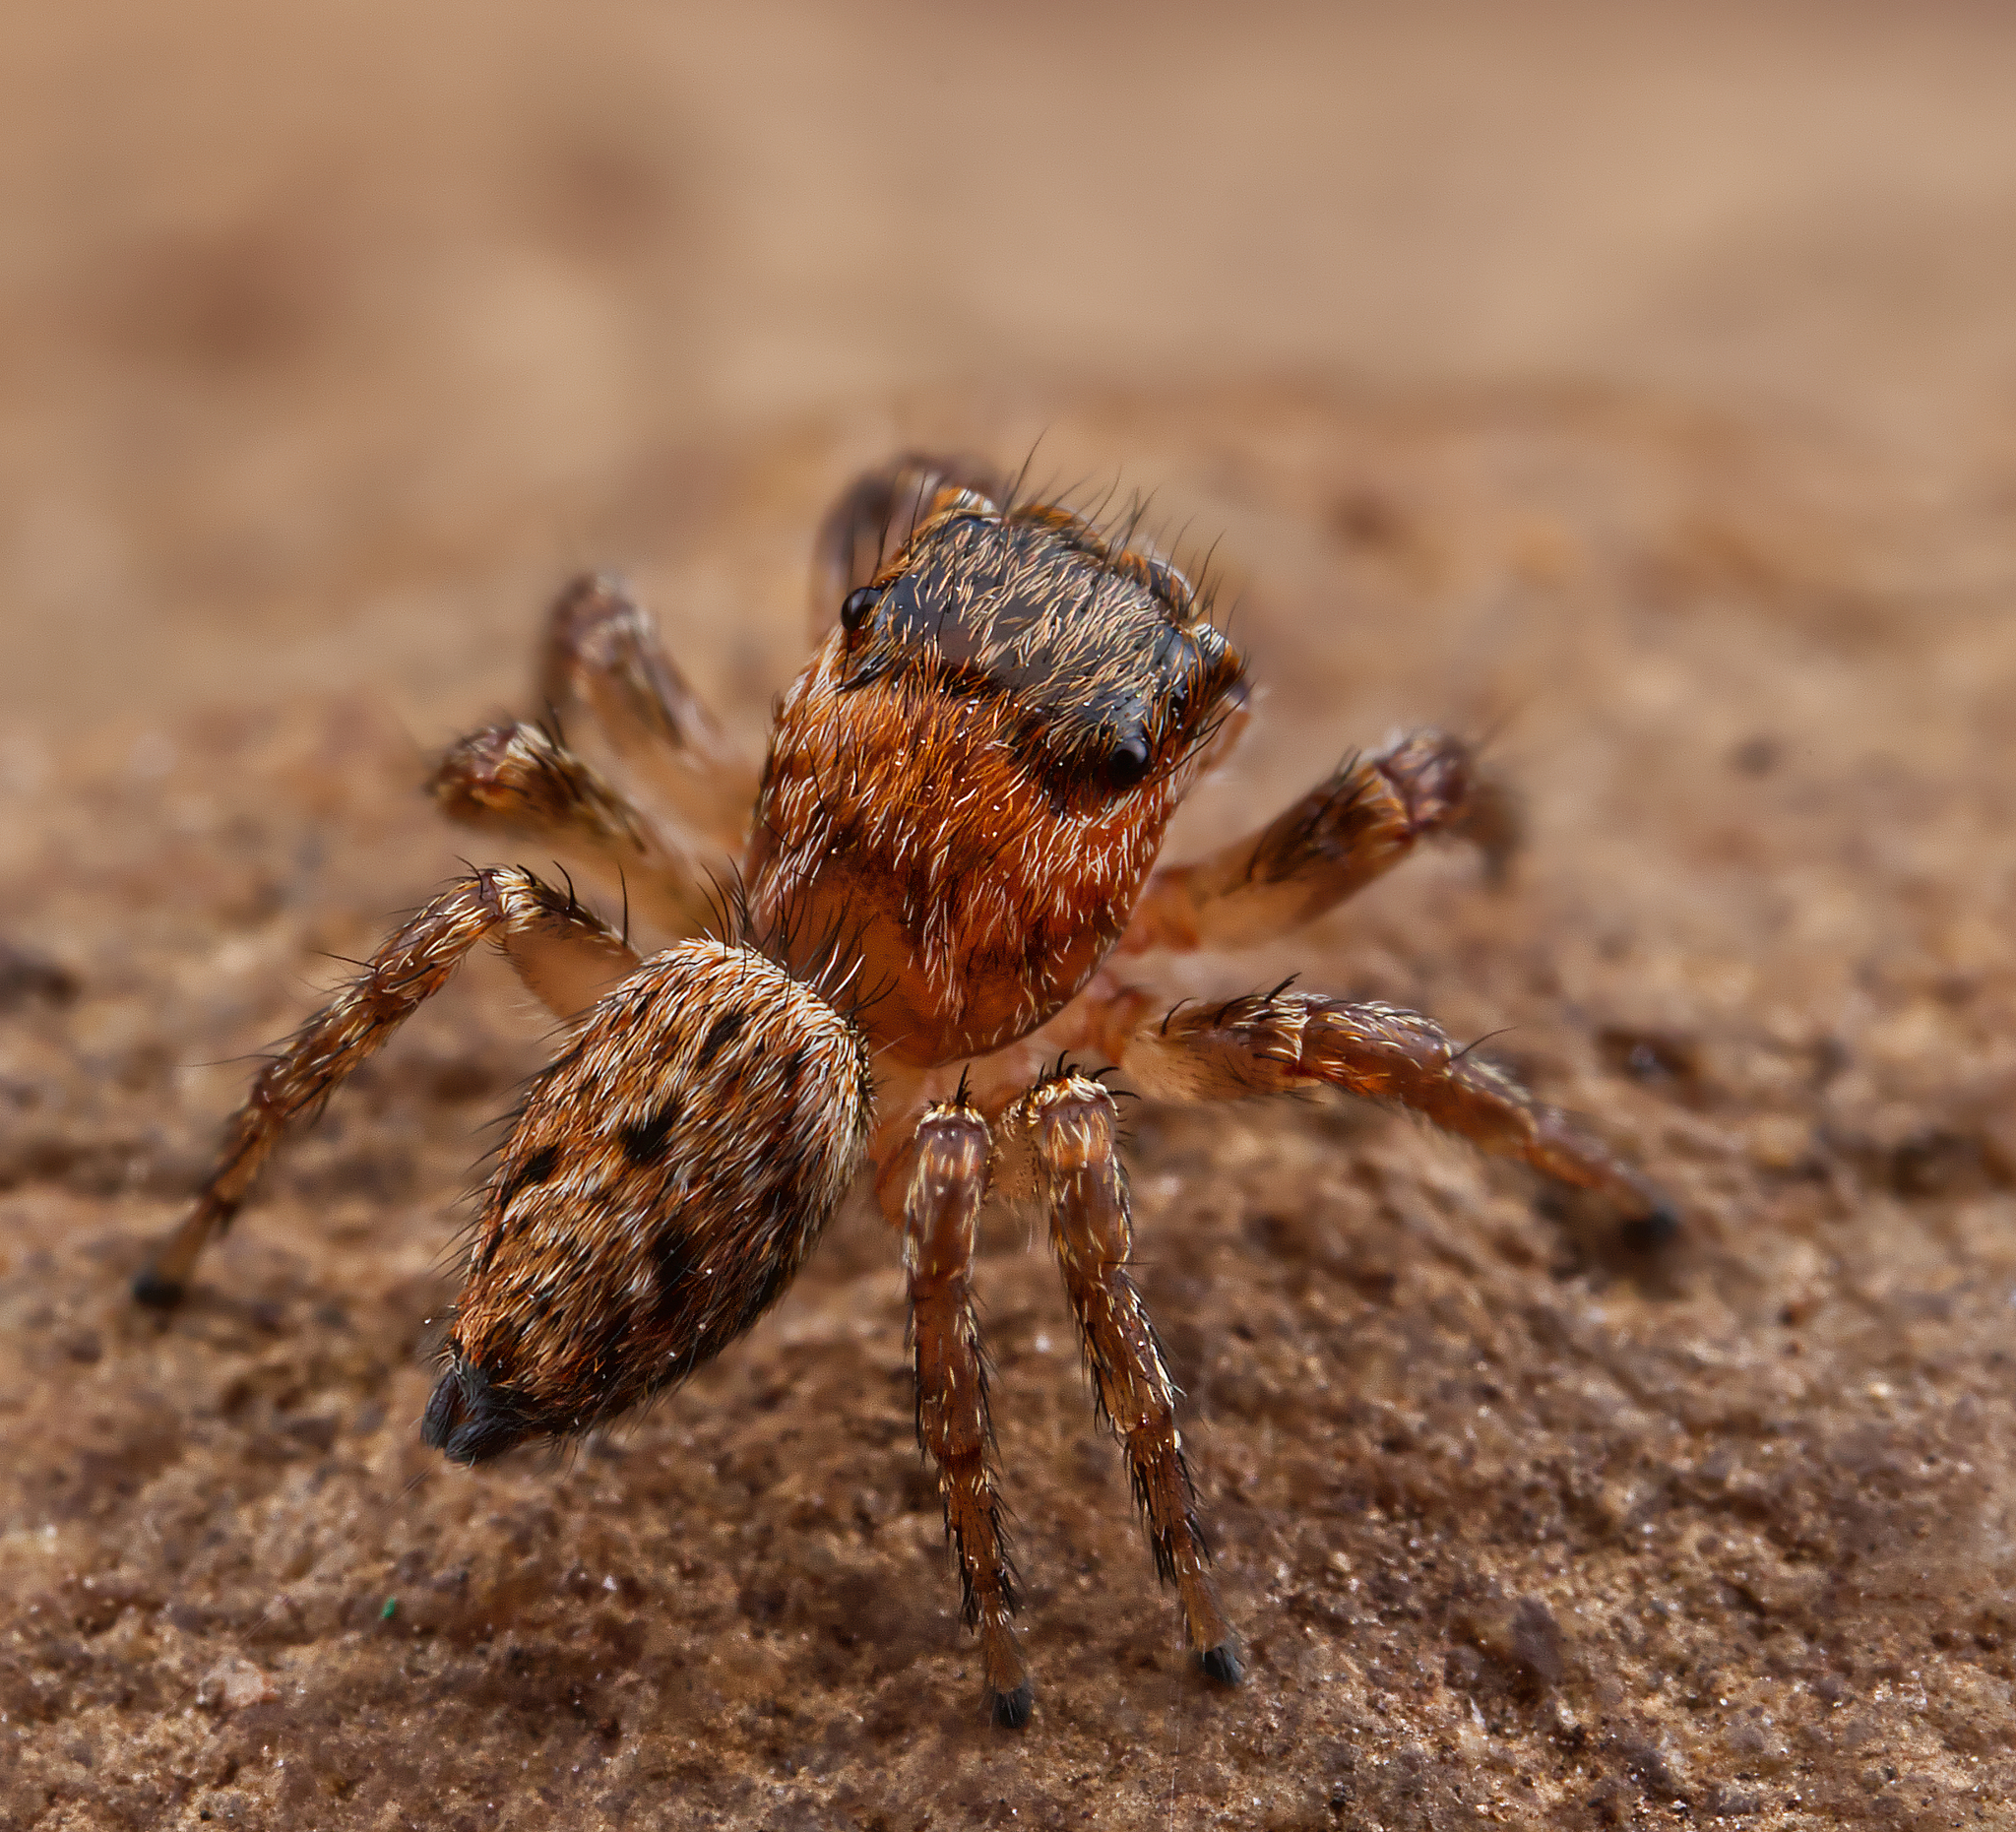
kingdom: Animalia
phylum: Arthropoda
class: Arachnida
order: Araneae
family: Salticidae
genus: Evarcha
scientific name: Evarcha hoyi
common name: Hoy's jumping spider
